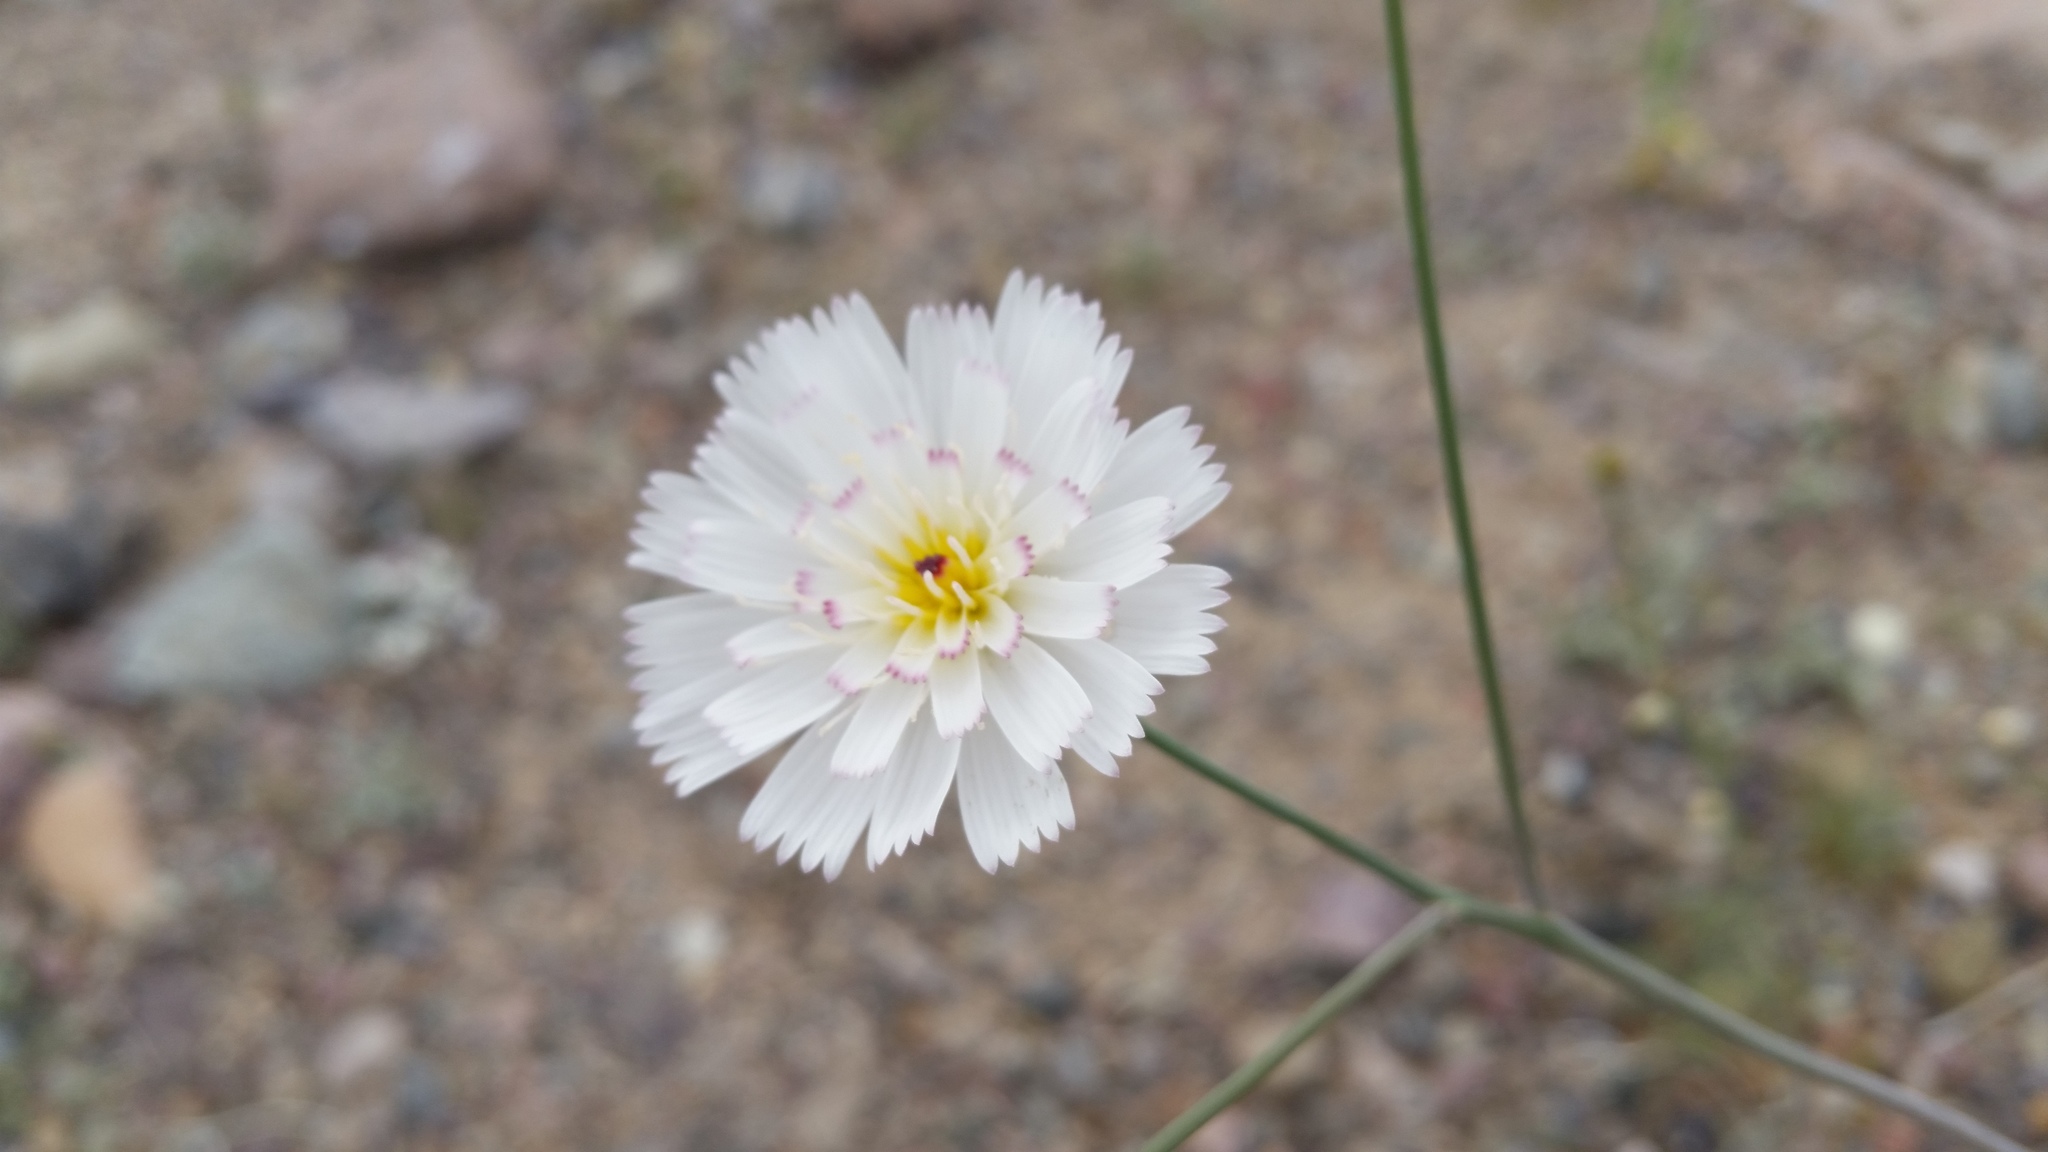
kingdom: Plantae
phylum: Tracheophyta
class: Magnoliopsida
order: Asterales
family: Asteraceae
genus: Atrichoseris
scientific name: Atrichoseris platyphylla
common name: Tobaccoweed
